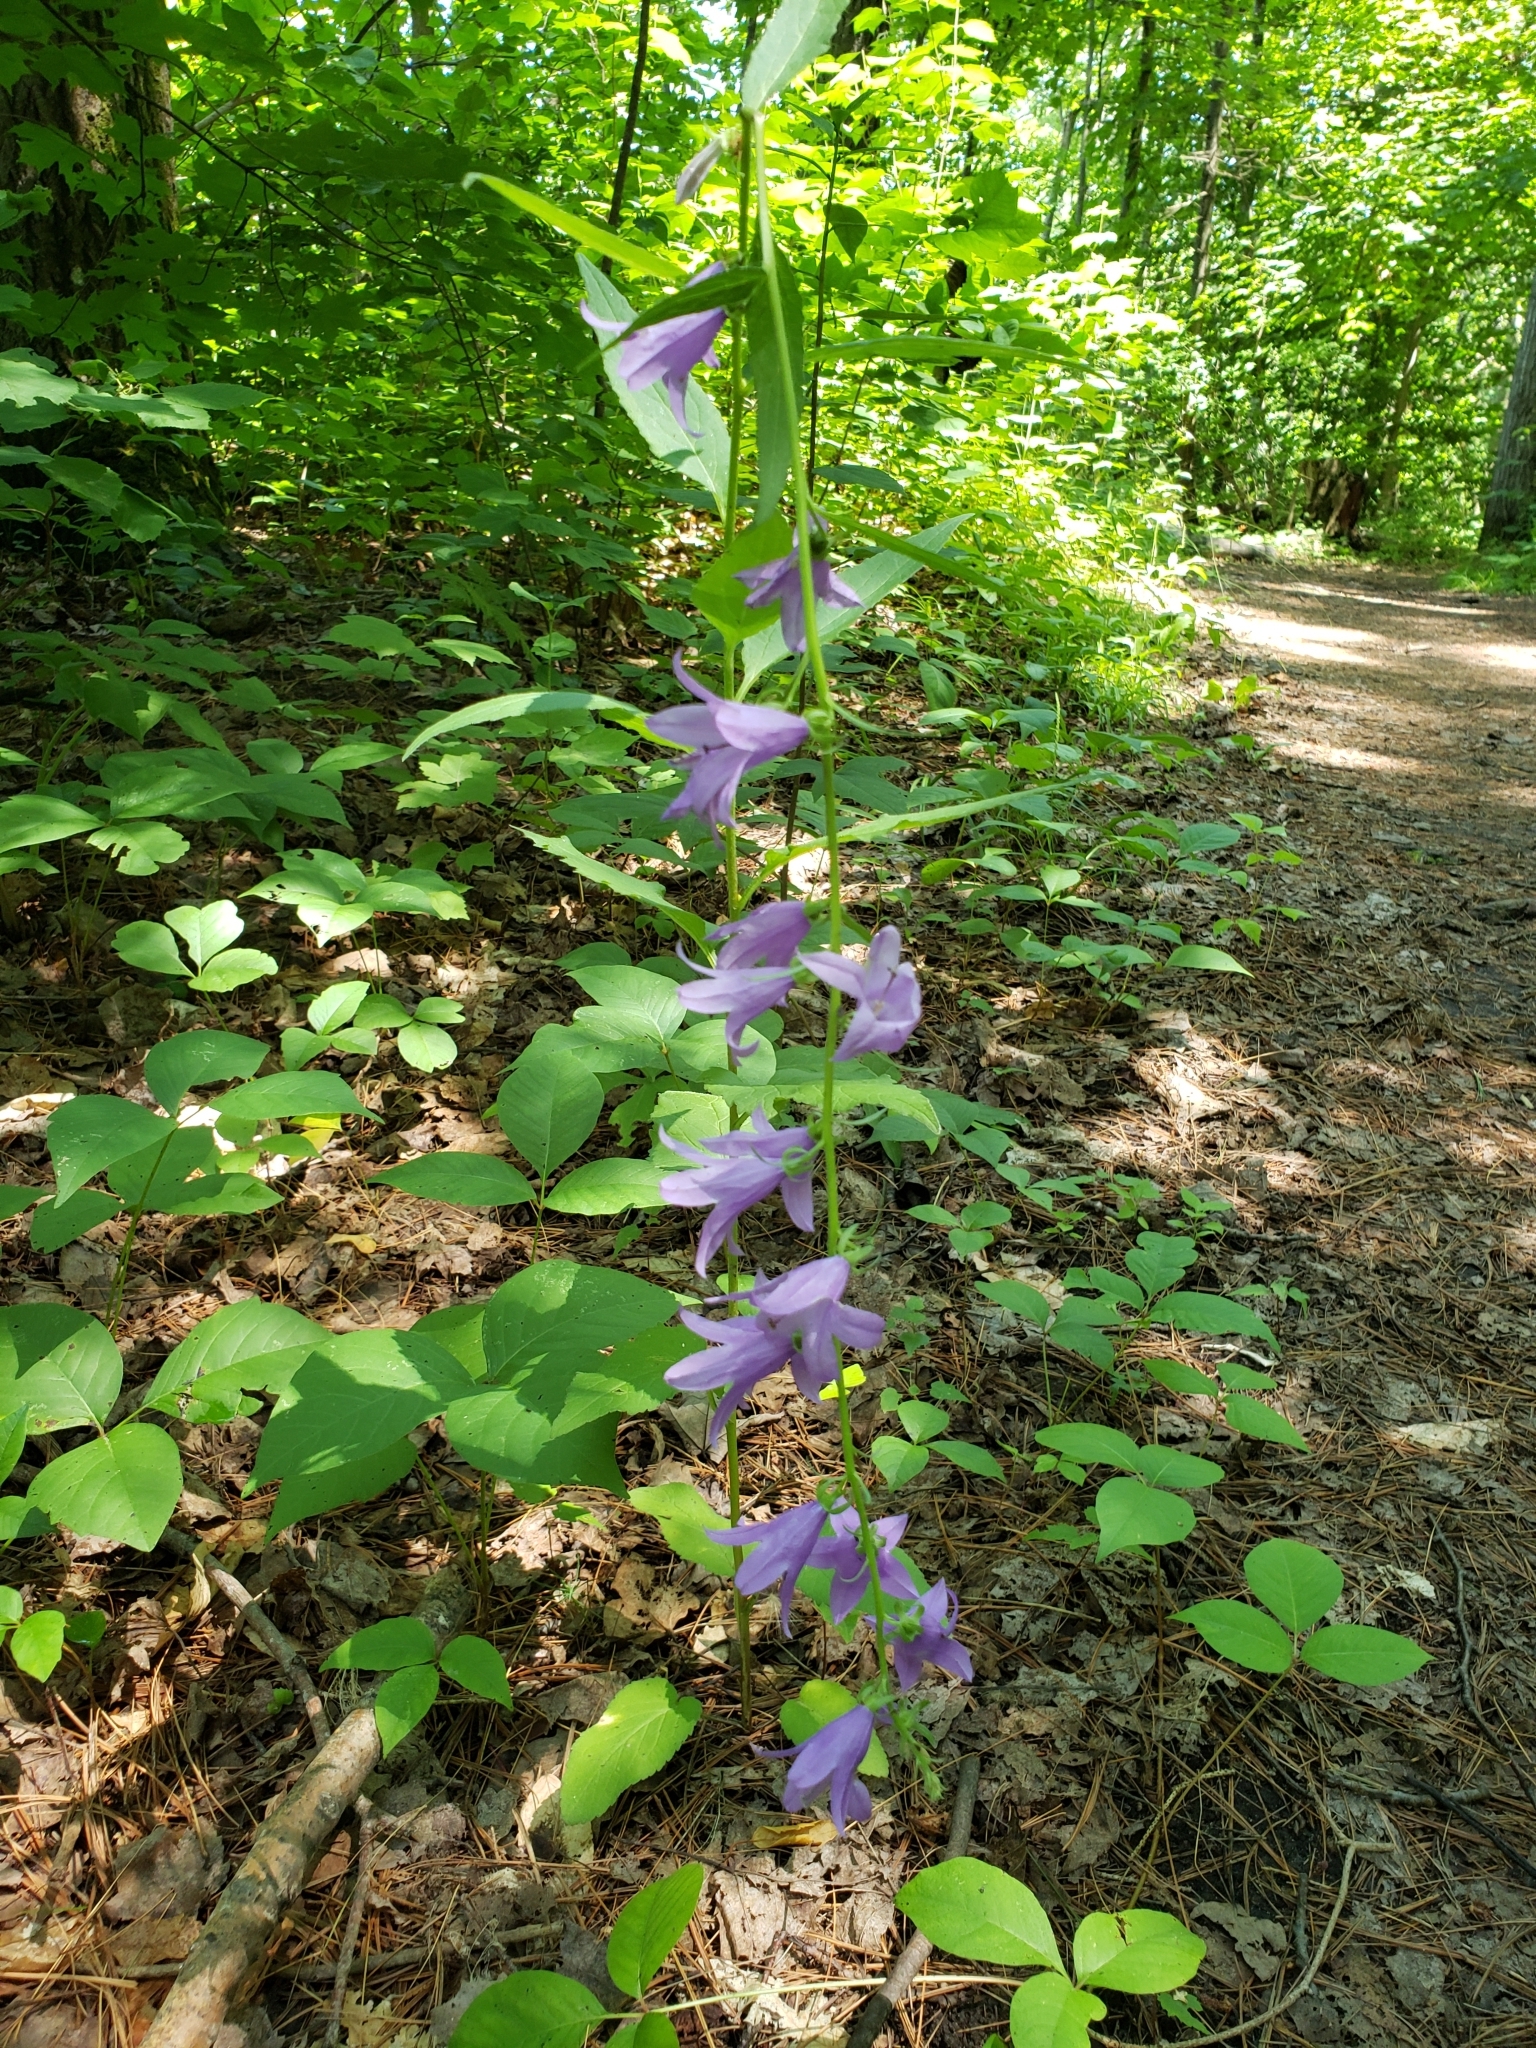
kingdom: Plantae
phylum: Tracheophyta
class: Magnoliopsida
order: Asterales
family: Campanulaceae
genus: Campanula
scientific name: Campanula rapunculoides
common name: Creeping bellflower
